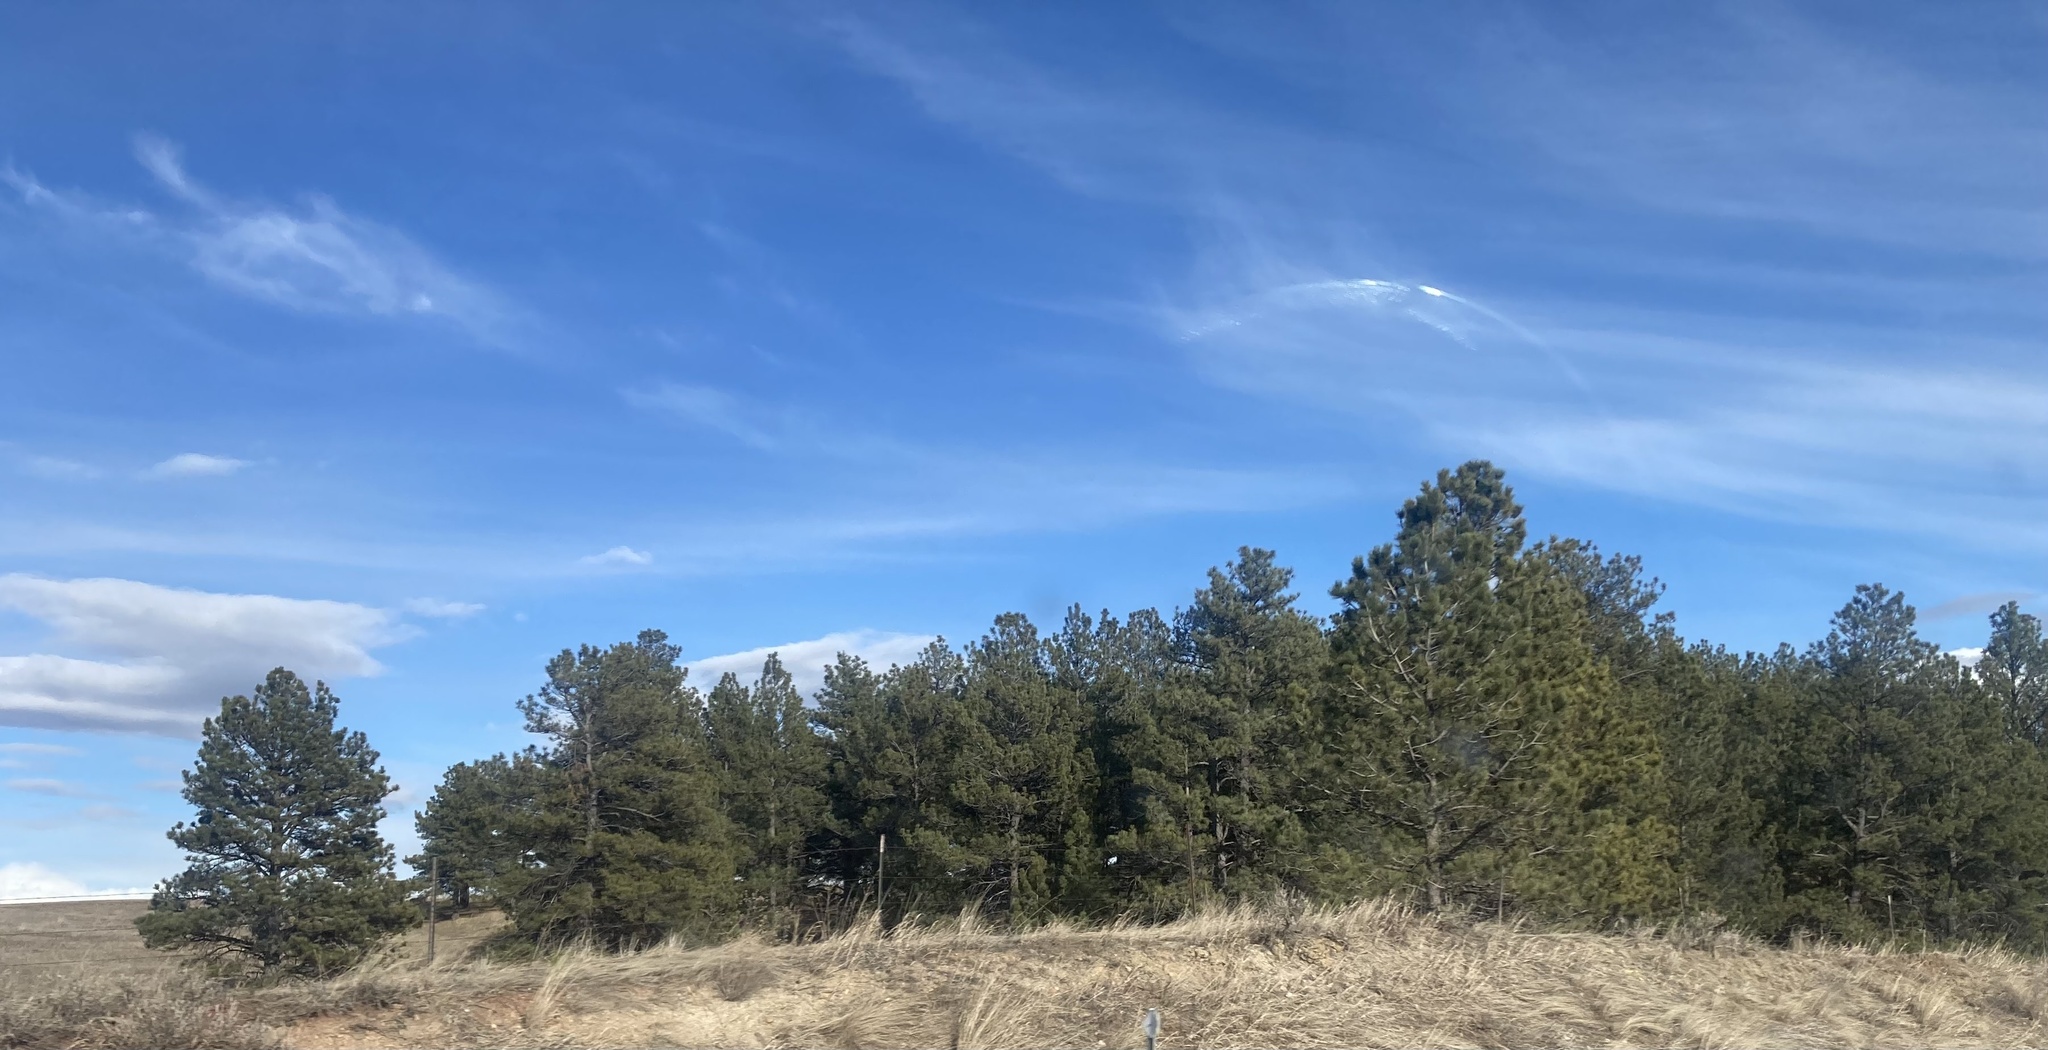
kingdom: Plantae
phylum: Tracheophyta
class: Pinopsida
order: Pinales
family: Pinaceae
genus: Pinus
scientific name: Pinus ponderosa
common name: Western yellow-pine
